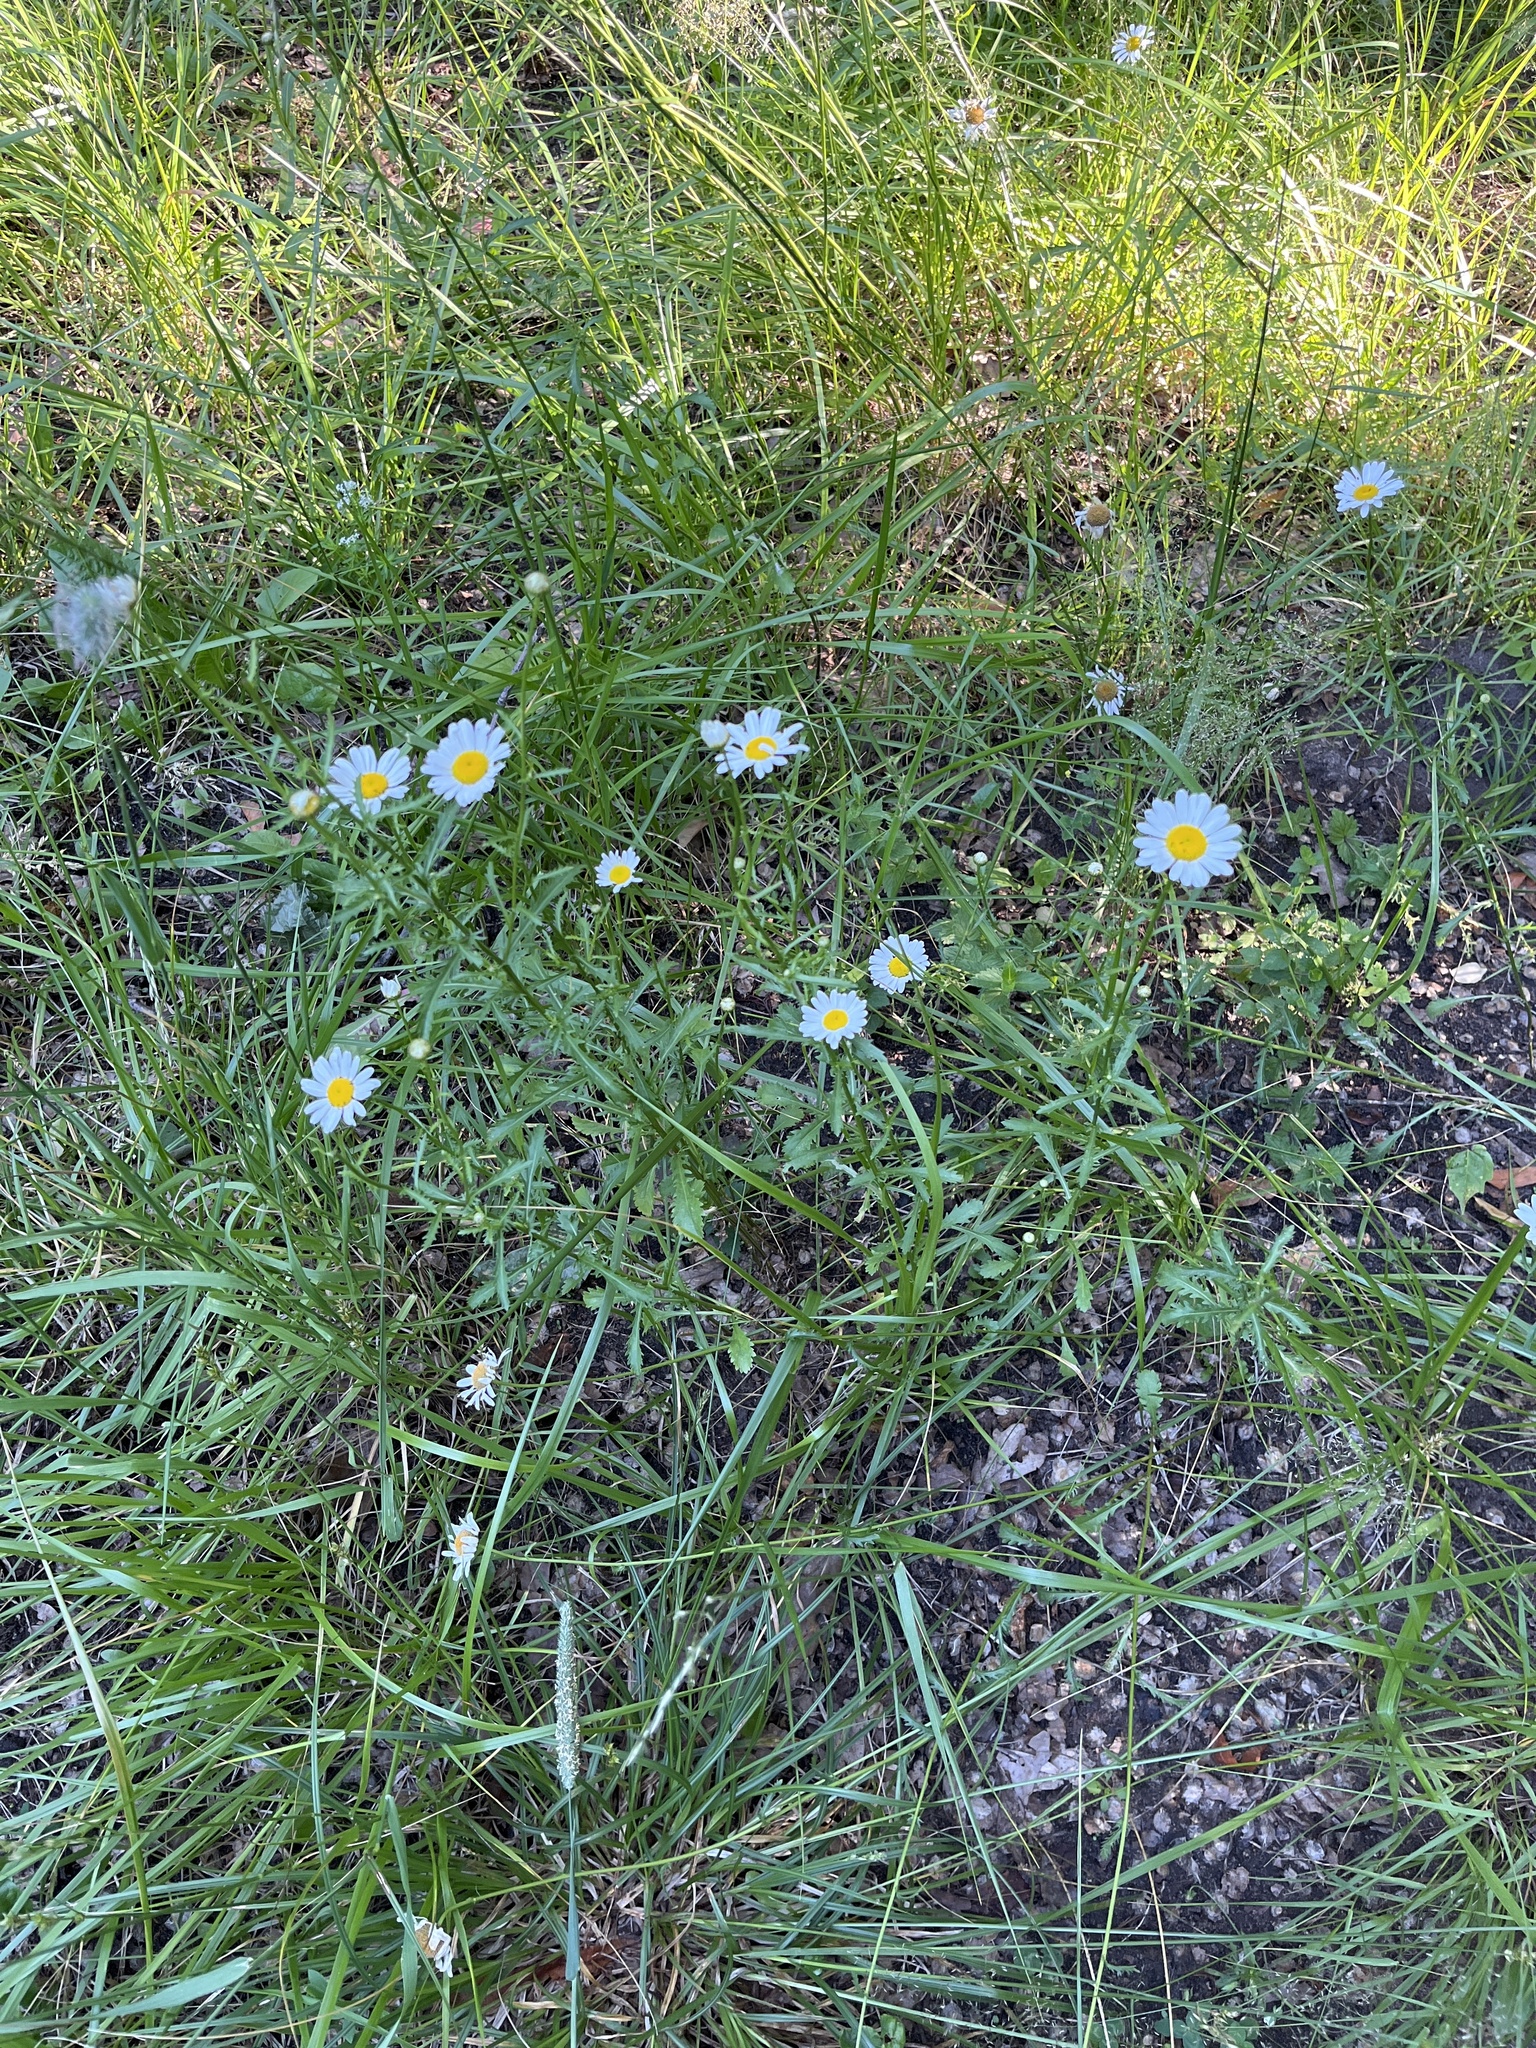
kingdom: Plantae
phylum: Tracheophyta
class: Magnoliopsida
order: Asterales
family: Asteraceae
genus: Leucanthemum
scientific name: Leucanthemum vulgare
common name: Oxeye daisy
